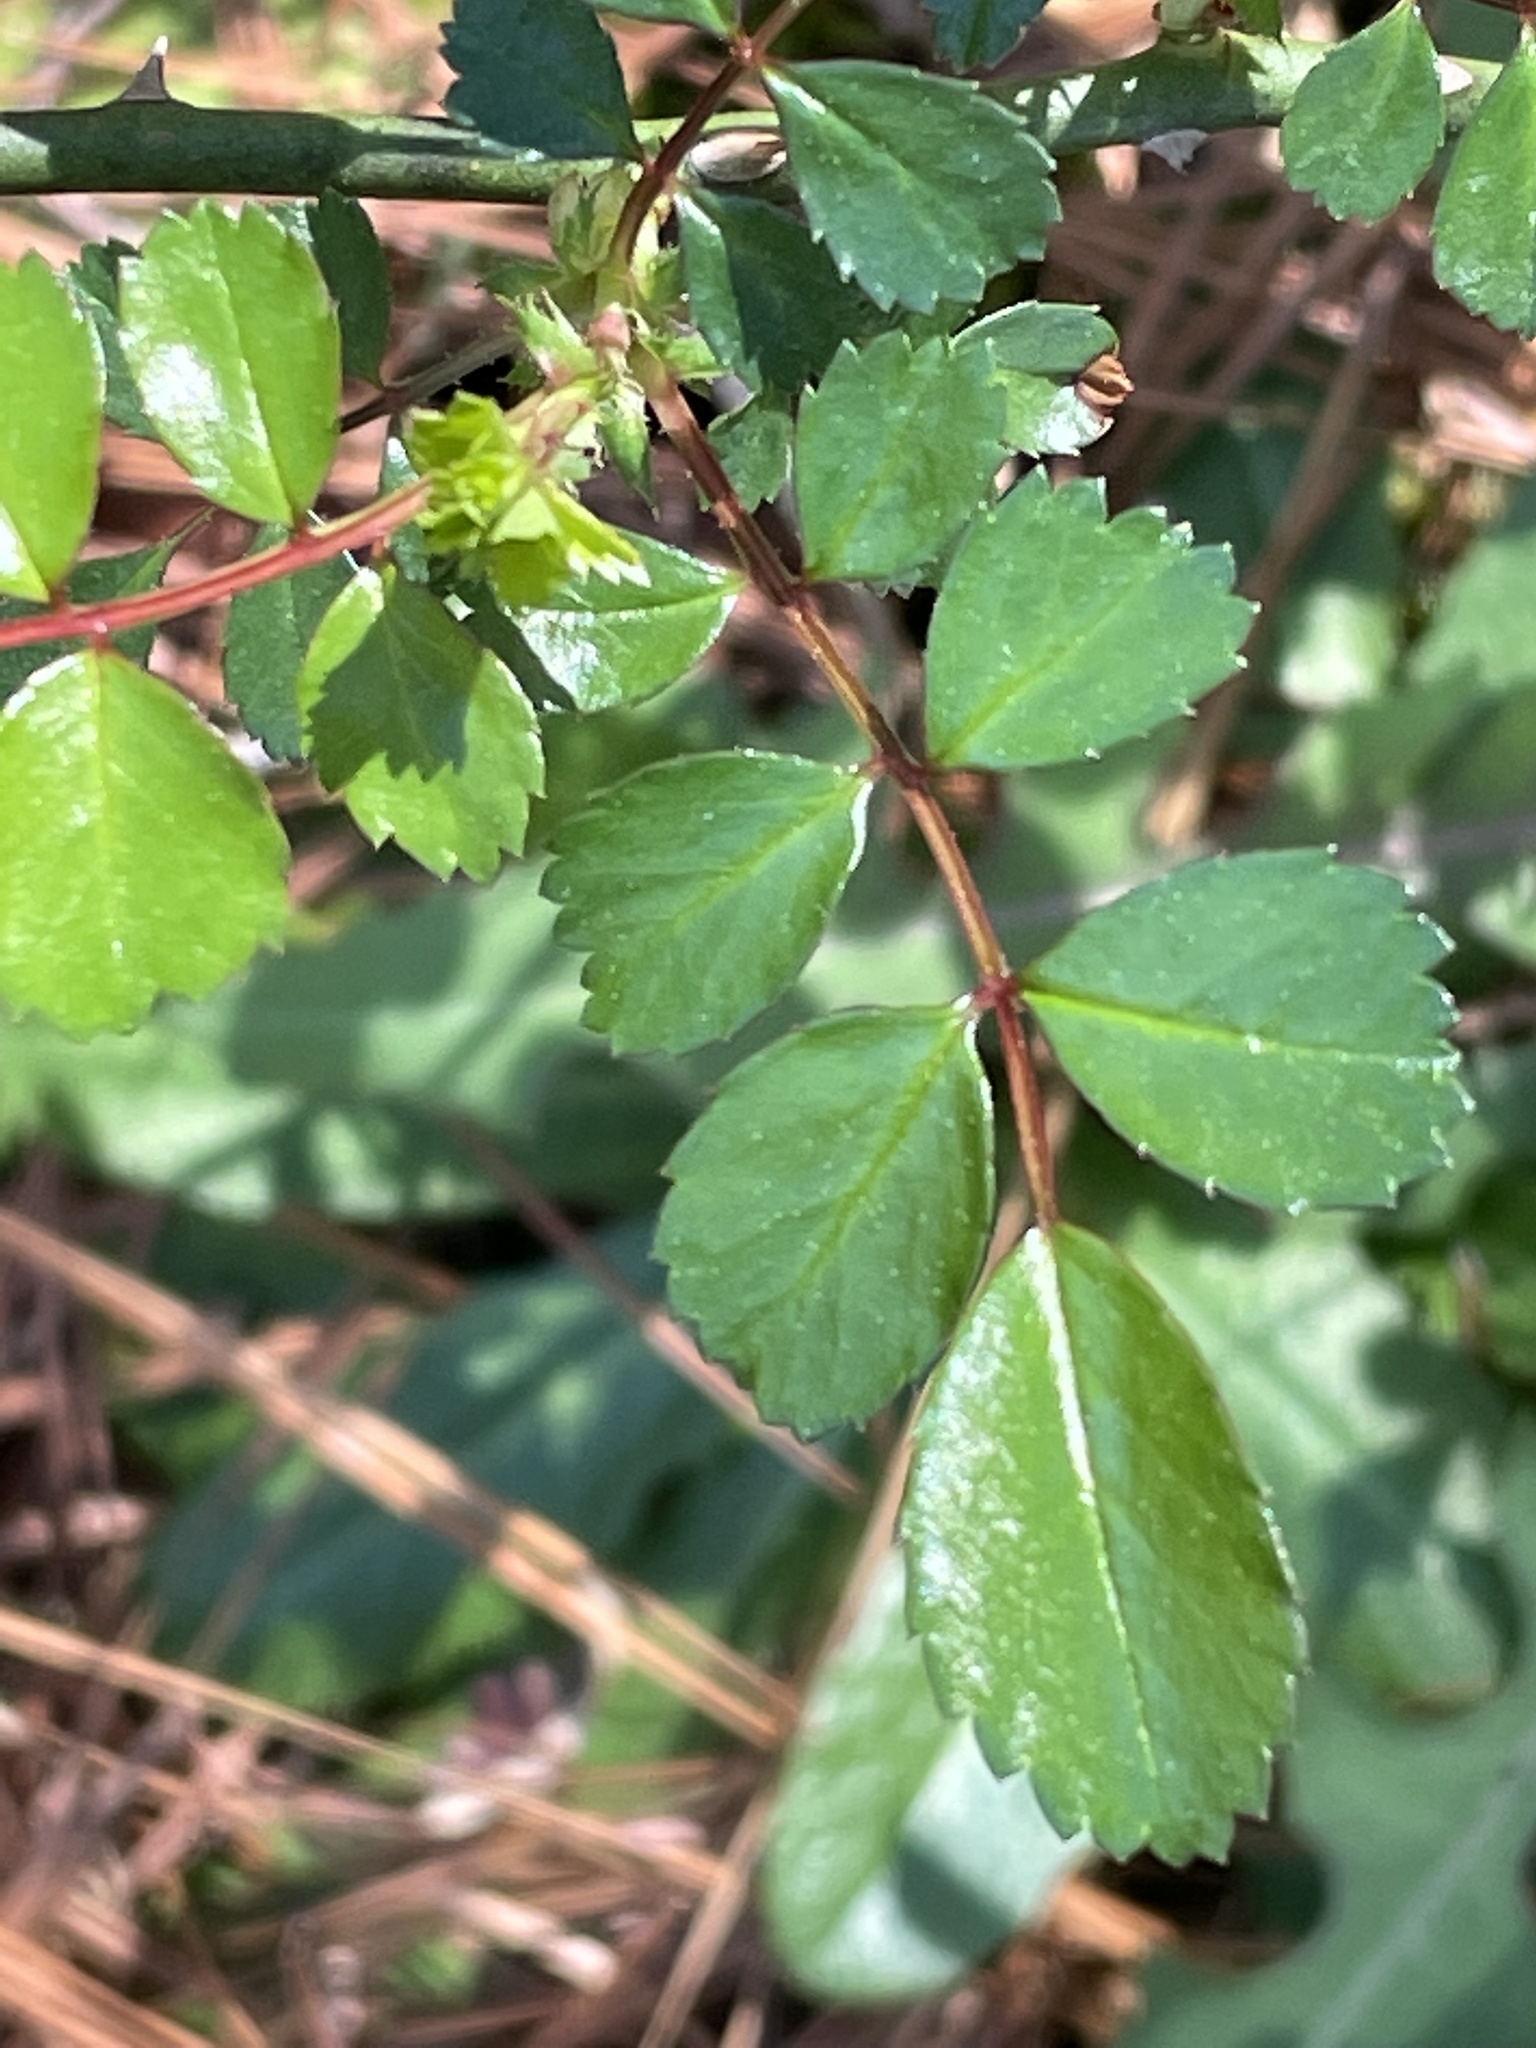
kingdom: Plantae
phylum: Tracheophyta
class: Magnoliopsida
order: Rosales
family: Rosaceae
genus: Rosa
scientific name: Rosa multiflora
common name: Multiflora rose
